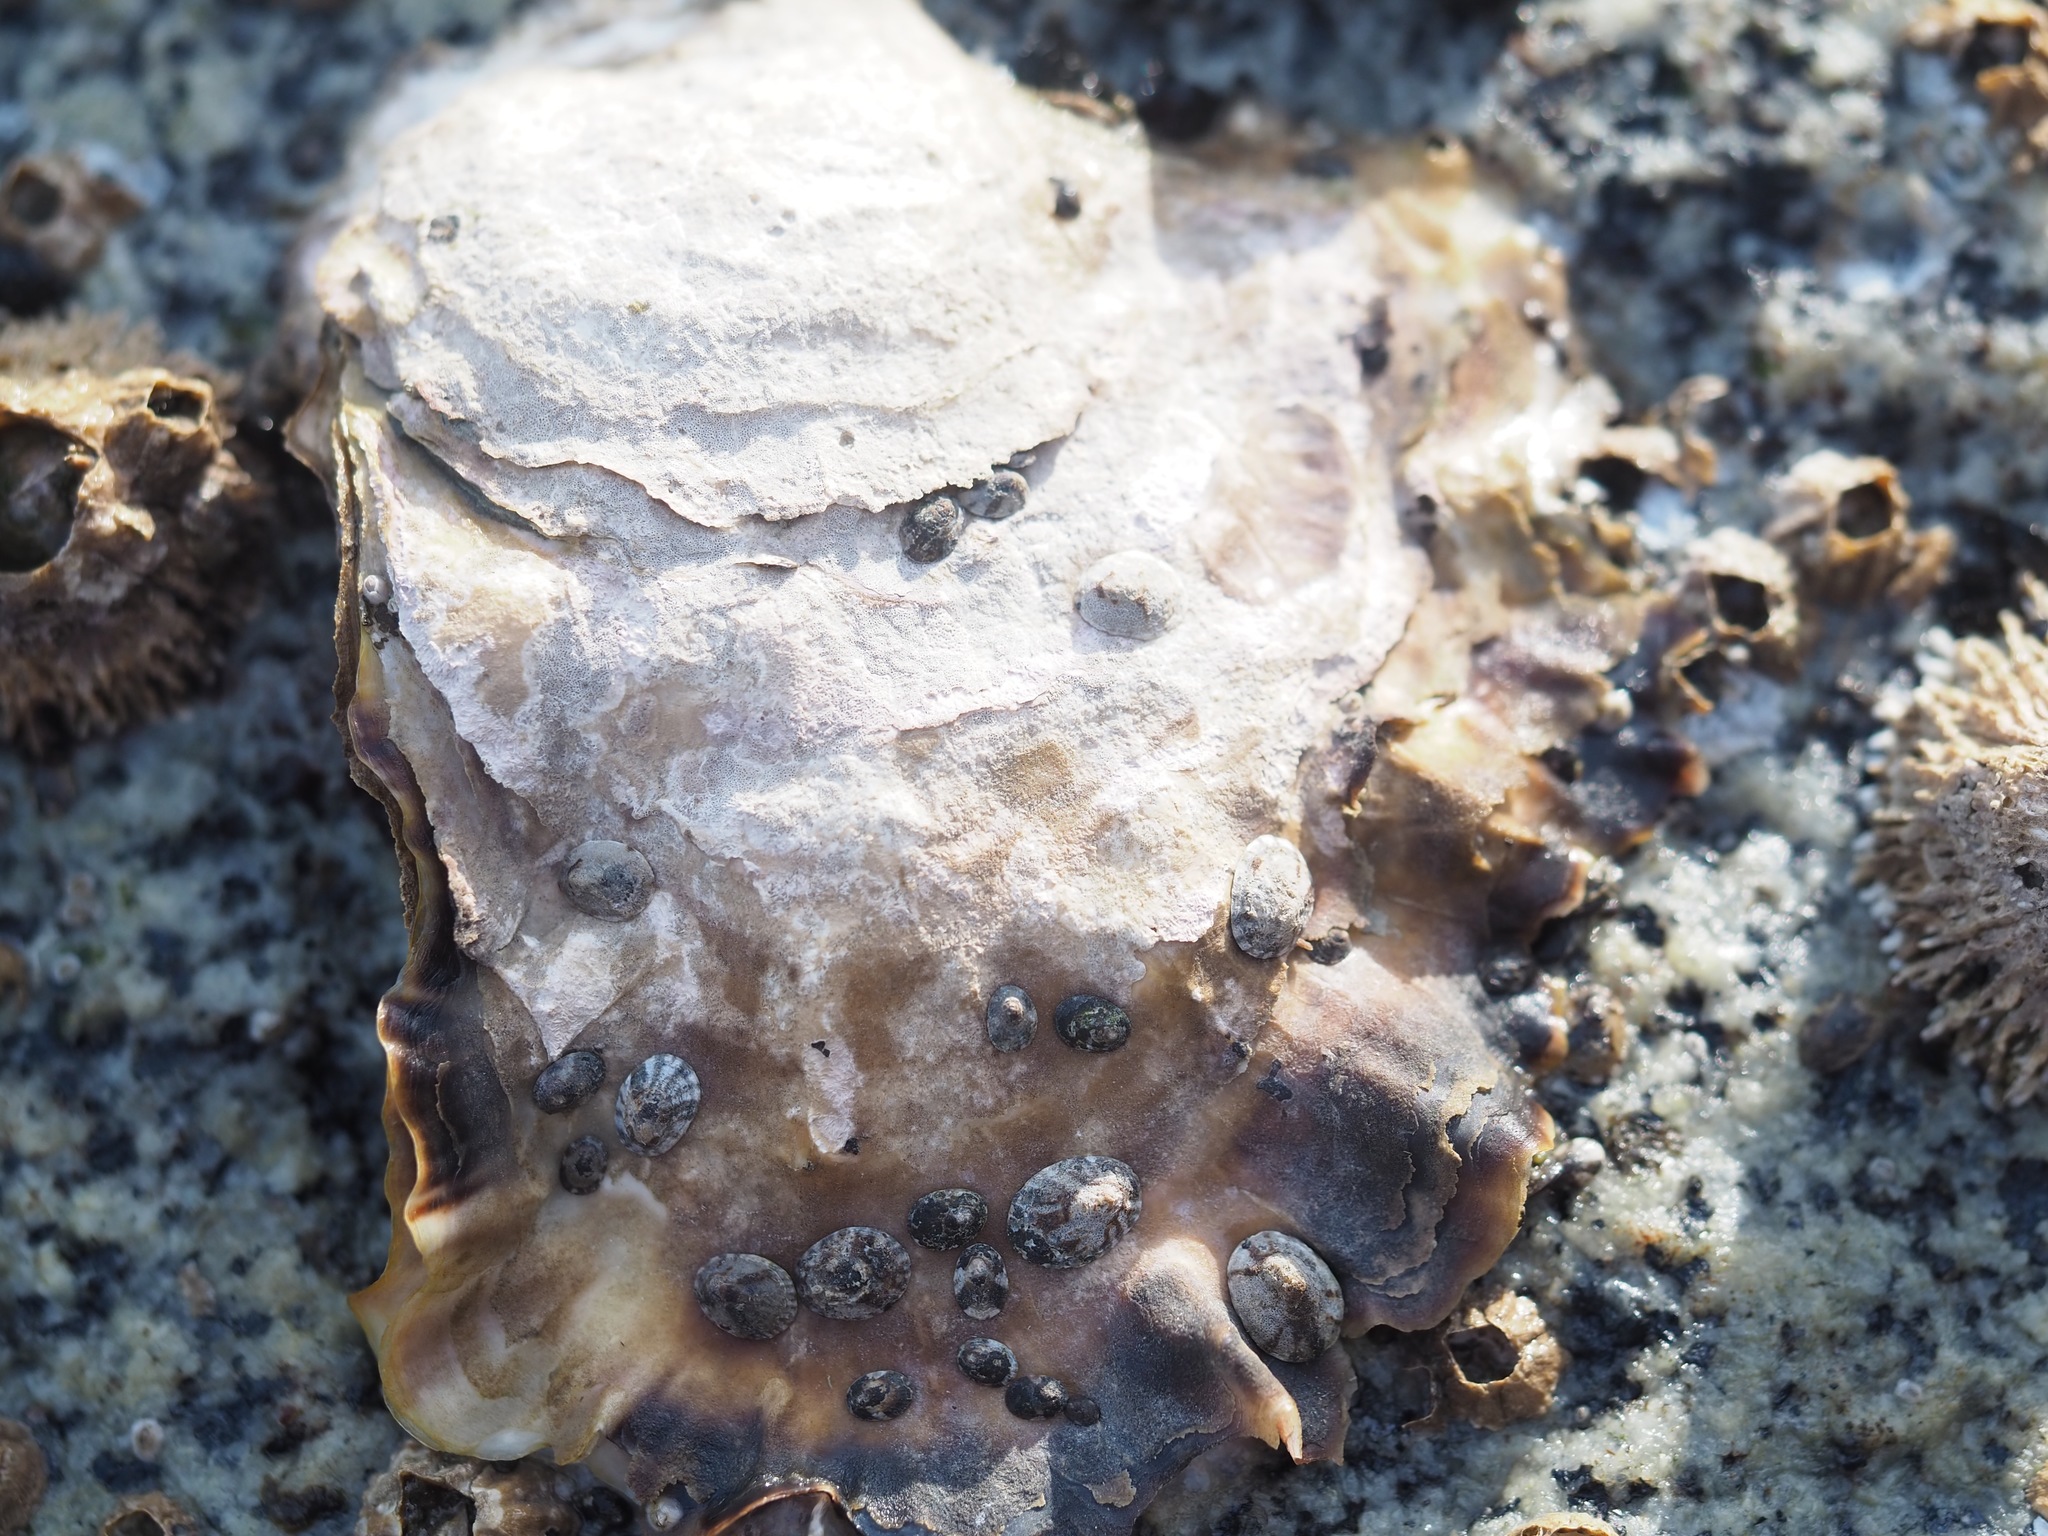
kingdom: Animalia
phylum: Mollusca
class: Bivalvia
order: Ostreida
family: Ostreidae
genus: Magallana
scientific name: Magallana gigas
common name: Pacific oyster
